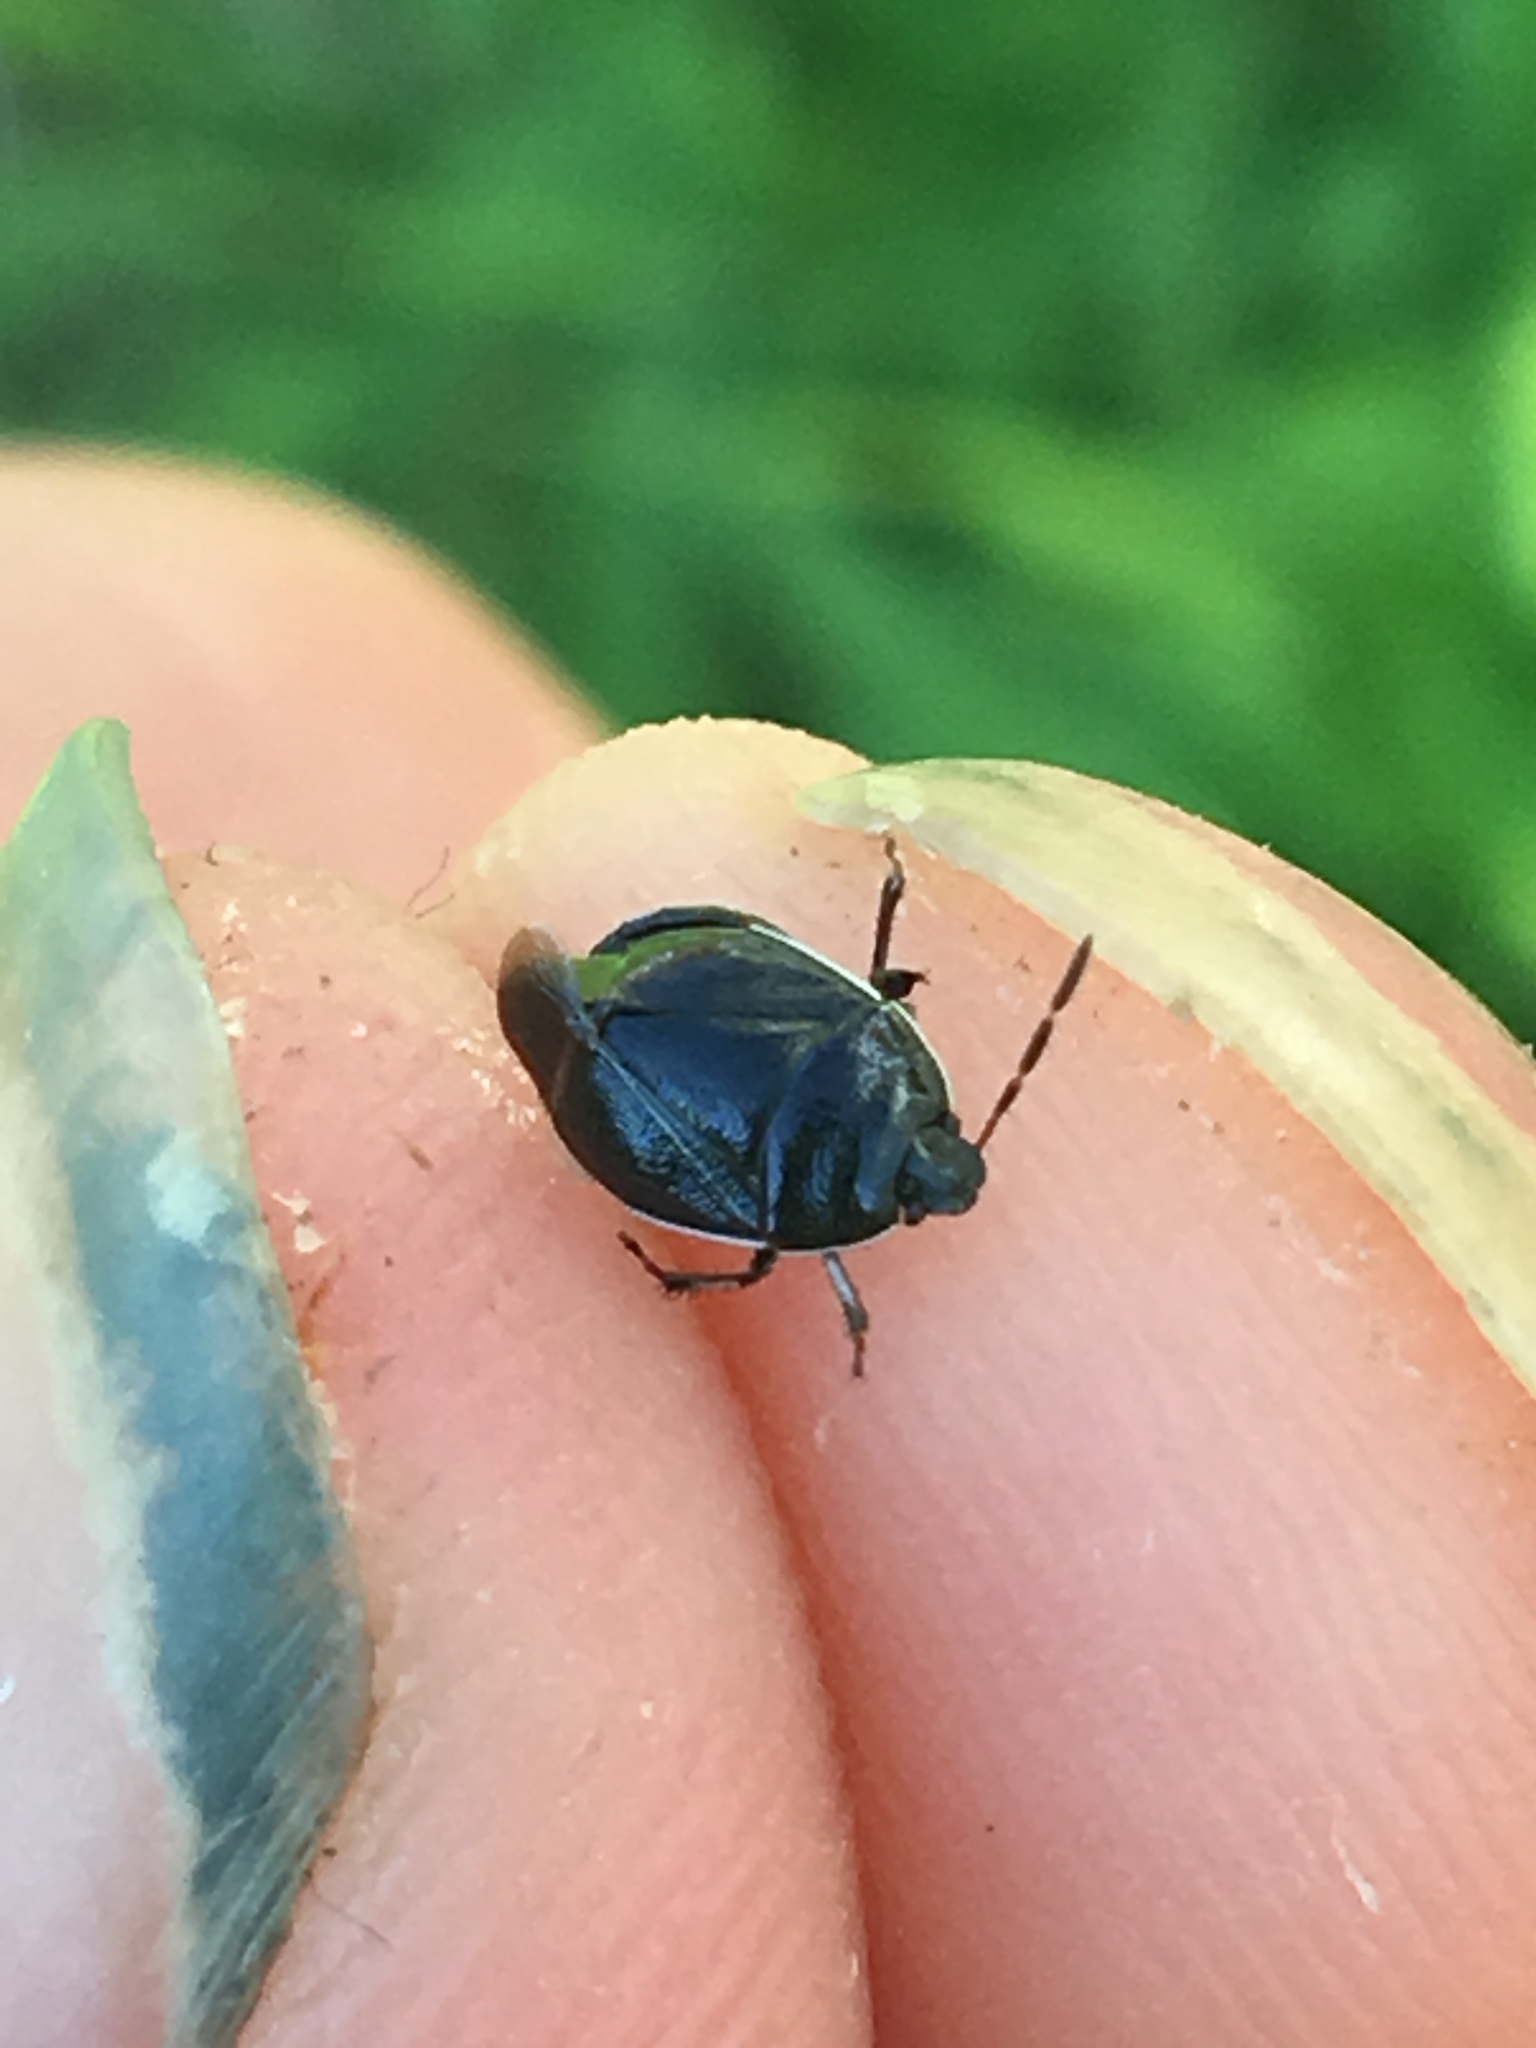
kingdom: Animalia
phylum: Arthropoda
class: Insecta
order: Hemiptera
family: Cydnidae
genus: Sehirus
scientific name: Sehirus cinctus
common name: White-margined burrower bug
